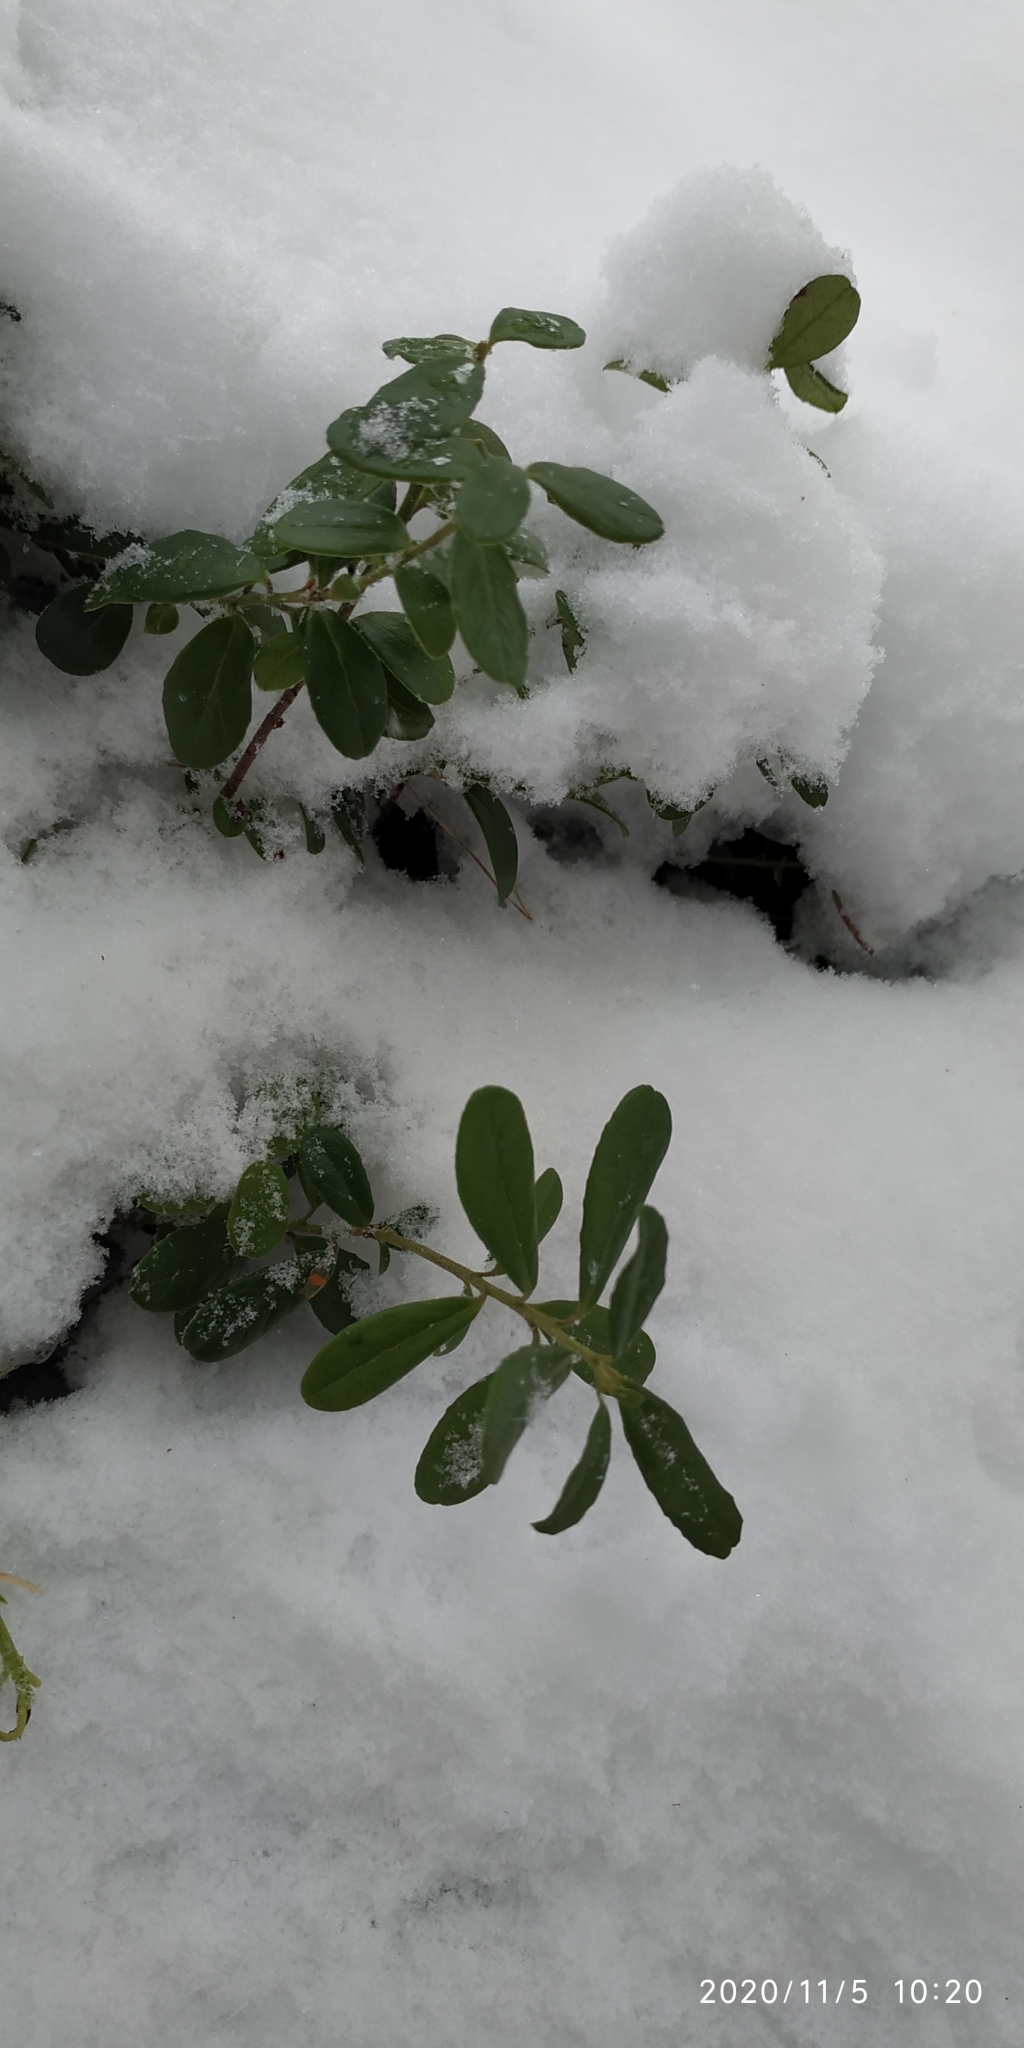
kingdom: Plantae
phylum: Tracheophyta
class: Magnoliopsida
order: Ericales
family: Ericaceae
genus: Vaccinium
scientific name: Vaccinium vitis-idaea
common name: Cowberry
